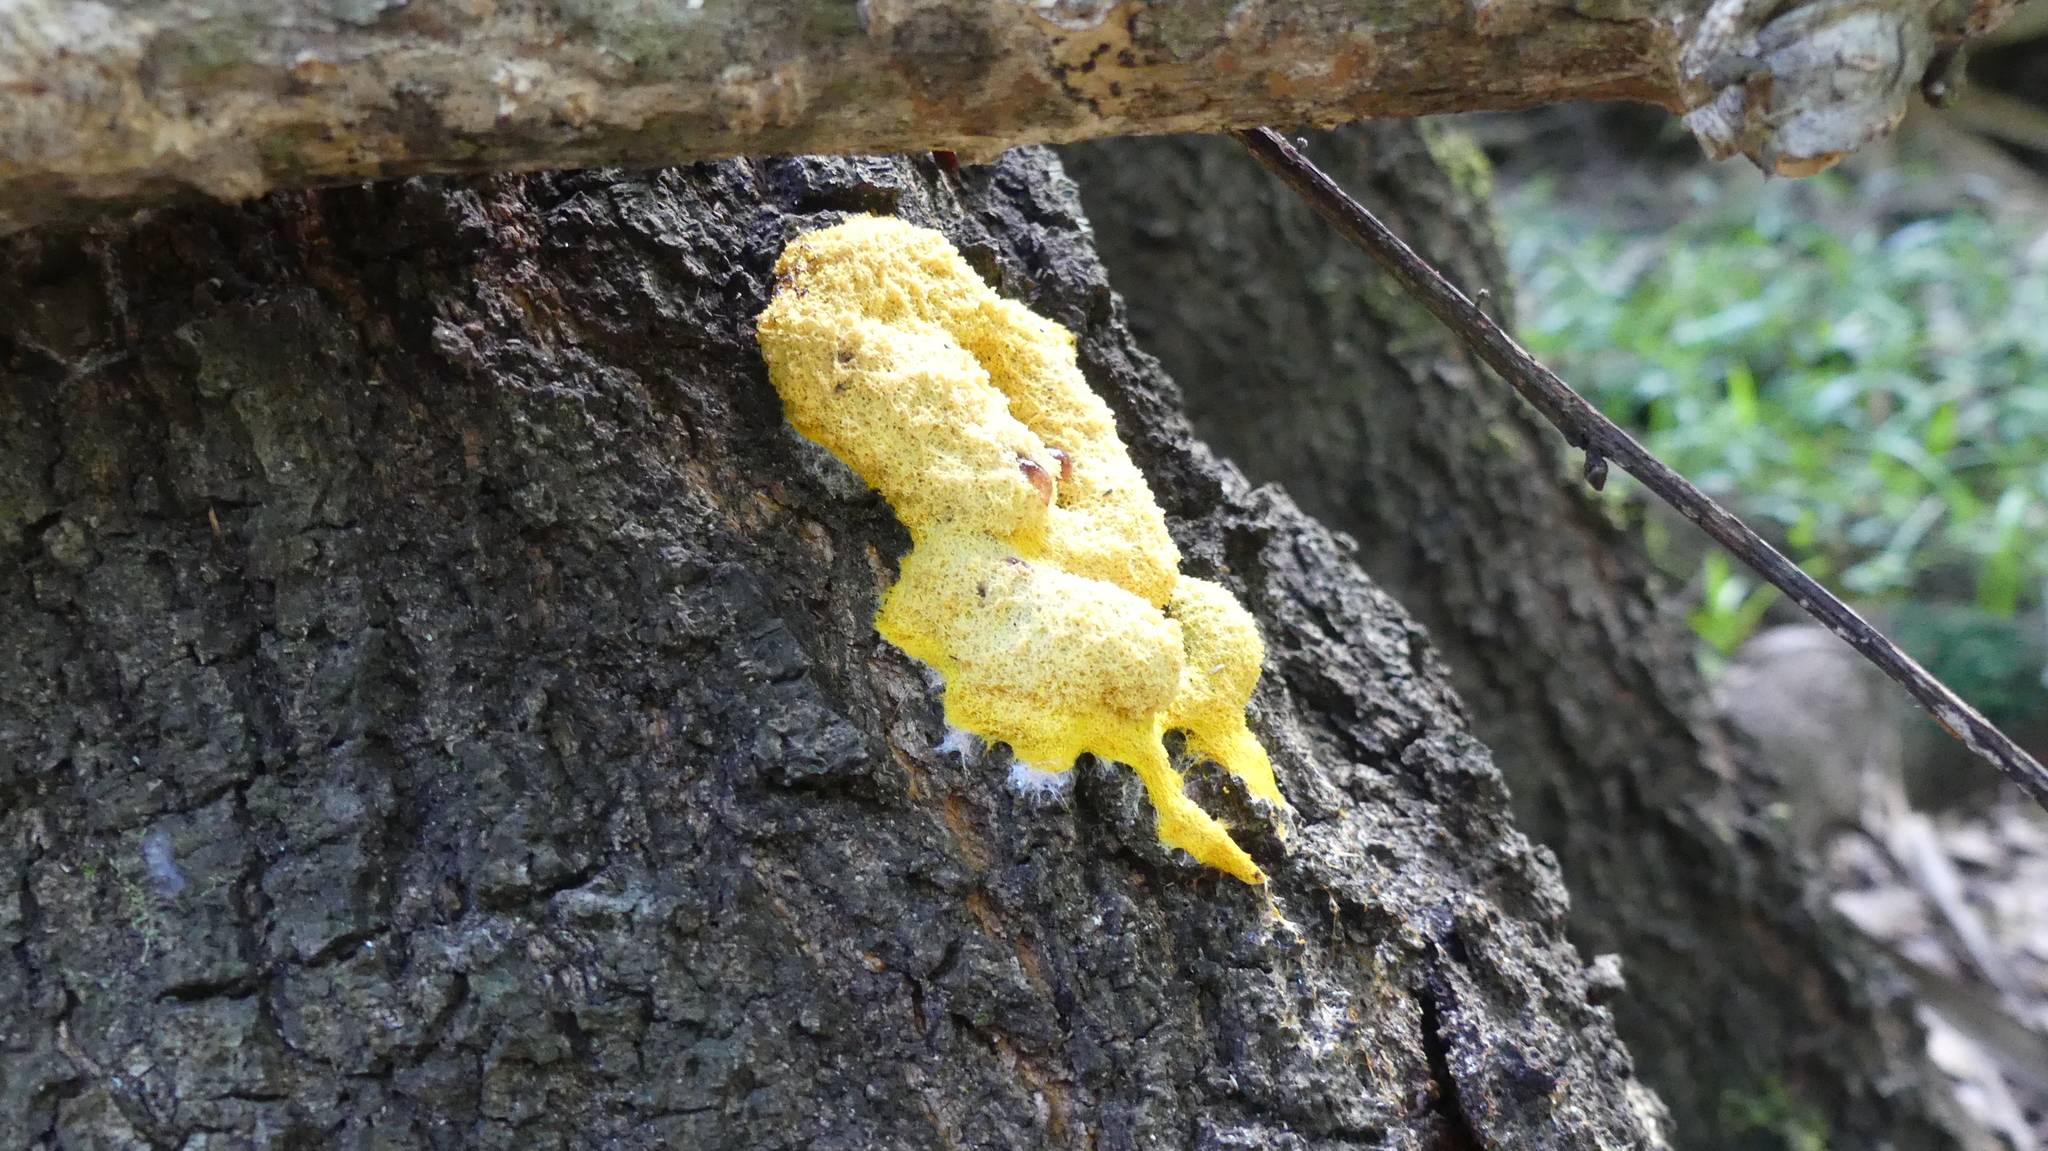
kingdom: Protozoa
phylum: Mycetozoa
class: Myxomycetes
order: Physarales
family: Physaraceae
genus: Fuligo
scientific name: Fuligo septica
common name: Dog vomit slime mold
